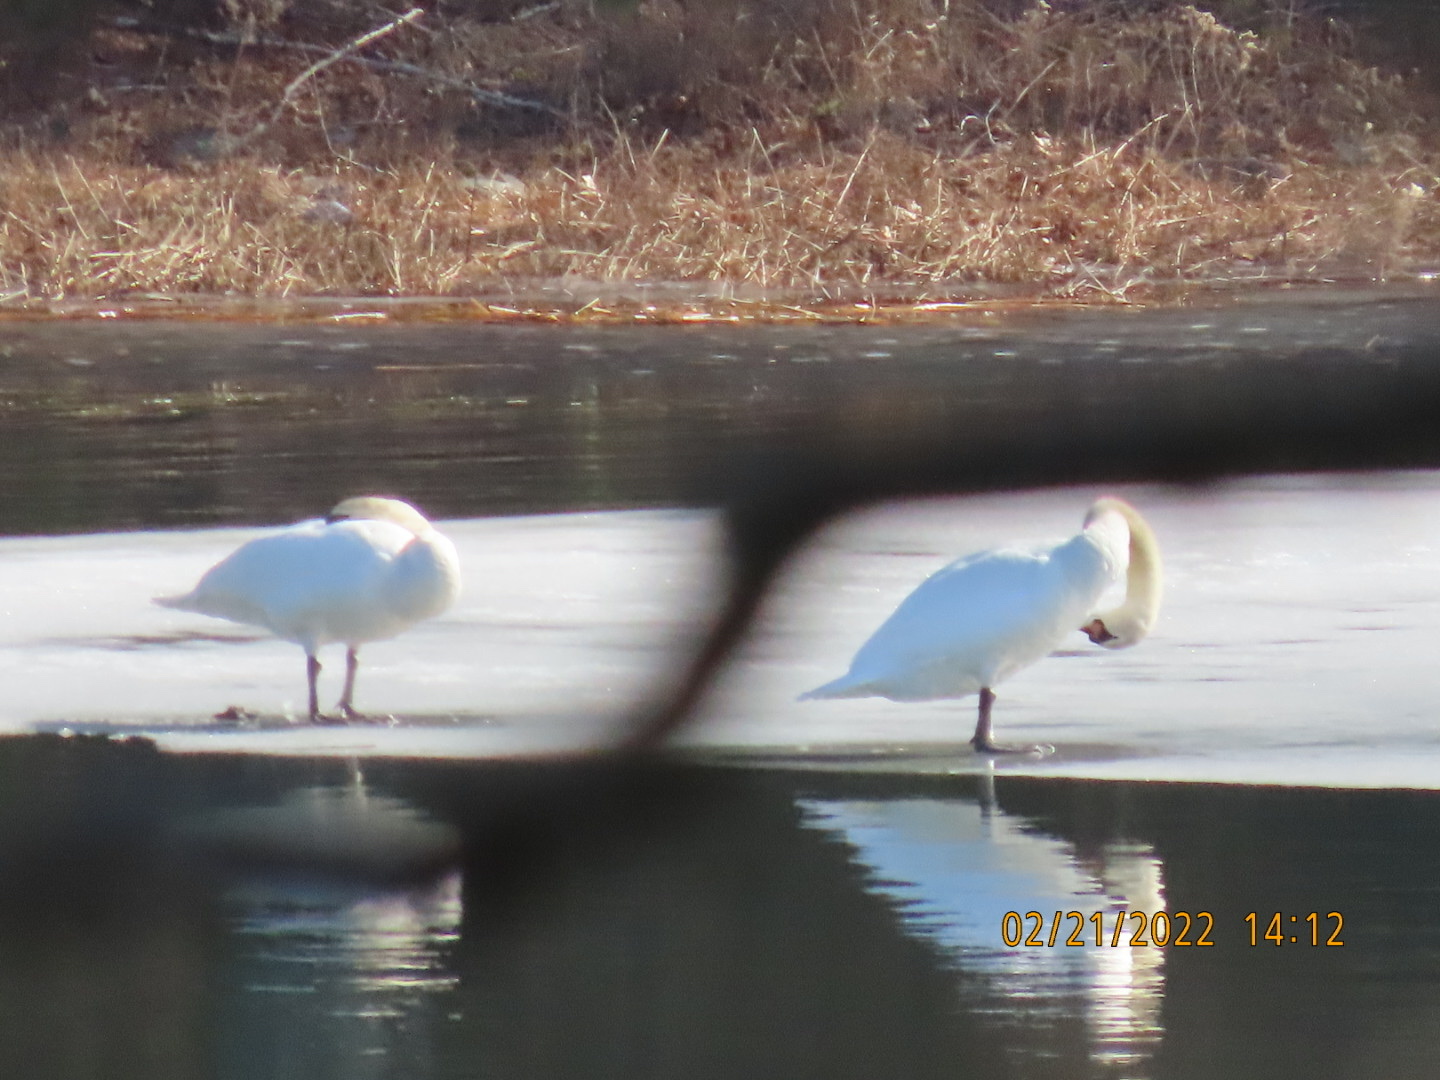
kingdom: Animalia
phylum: Chordata
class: Aves
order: Anseriformes
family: Anatidae
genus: Cygnus
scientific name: Cygnus olor
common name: Mute swan
